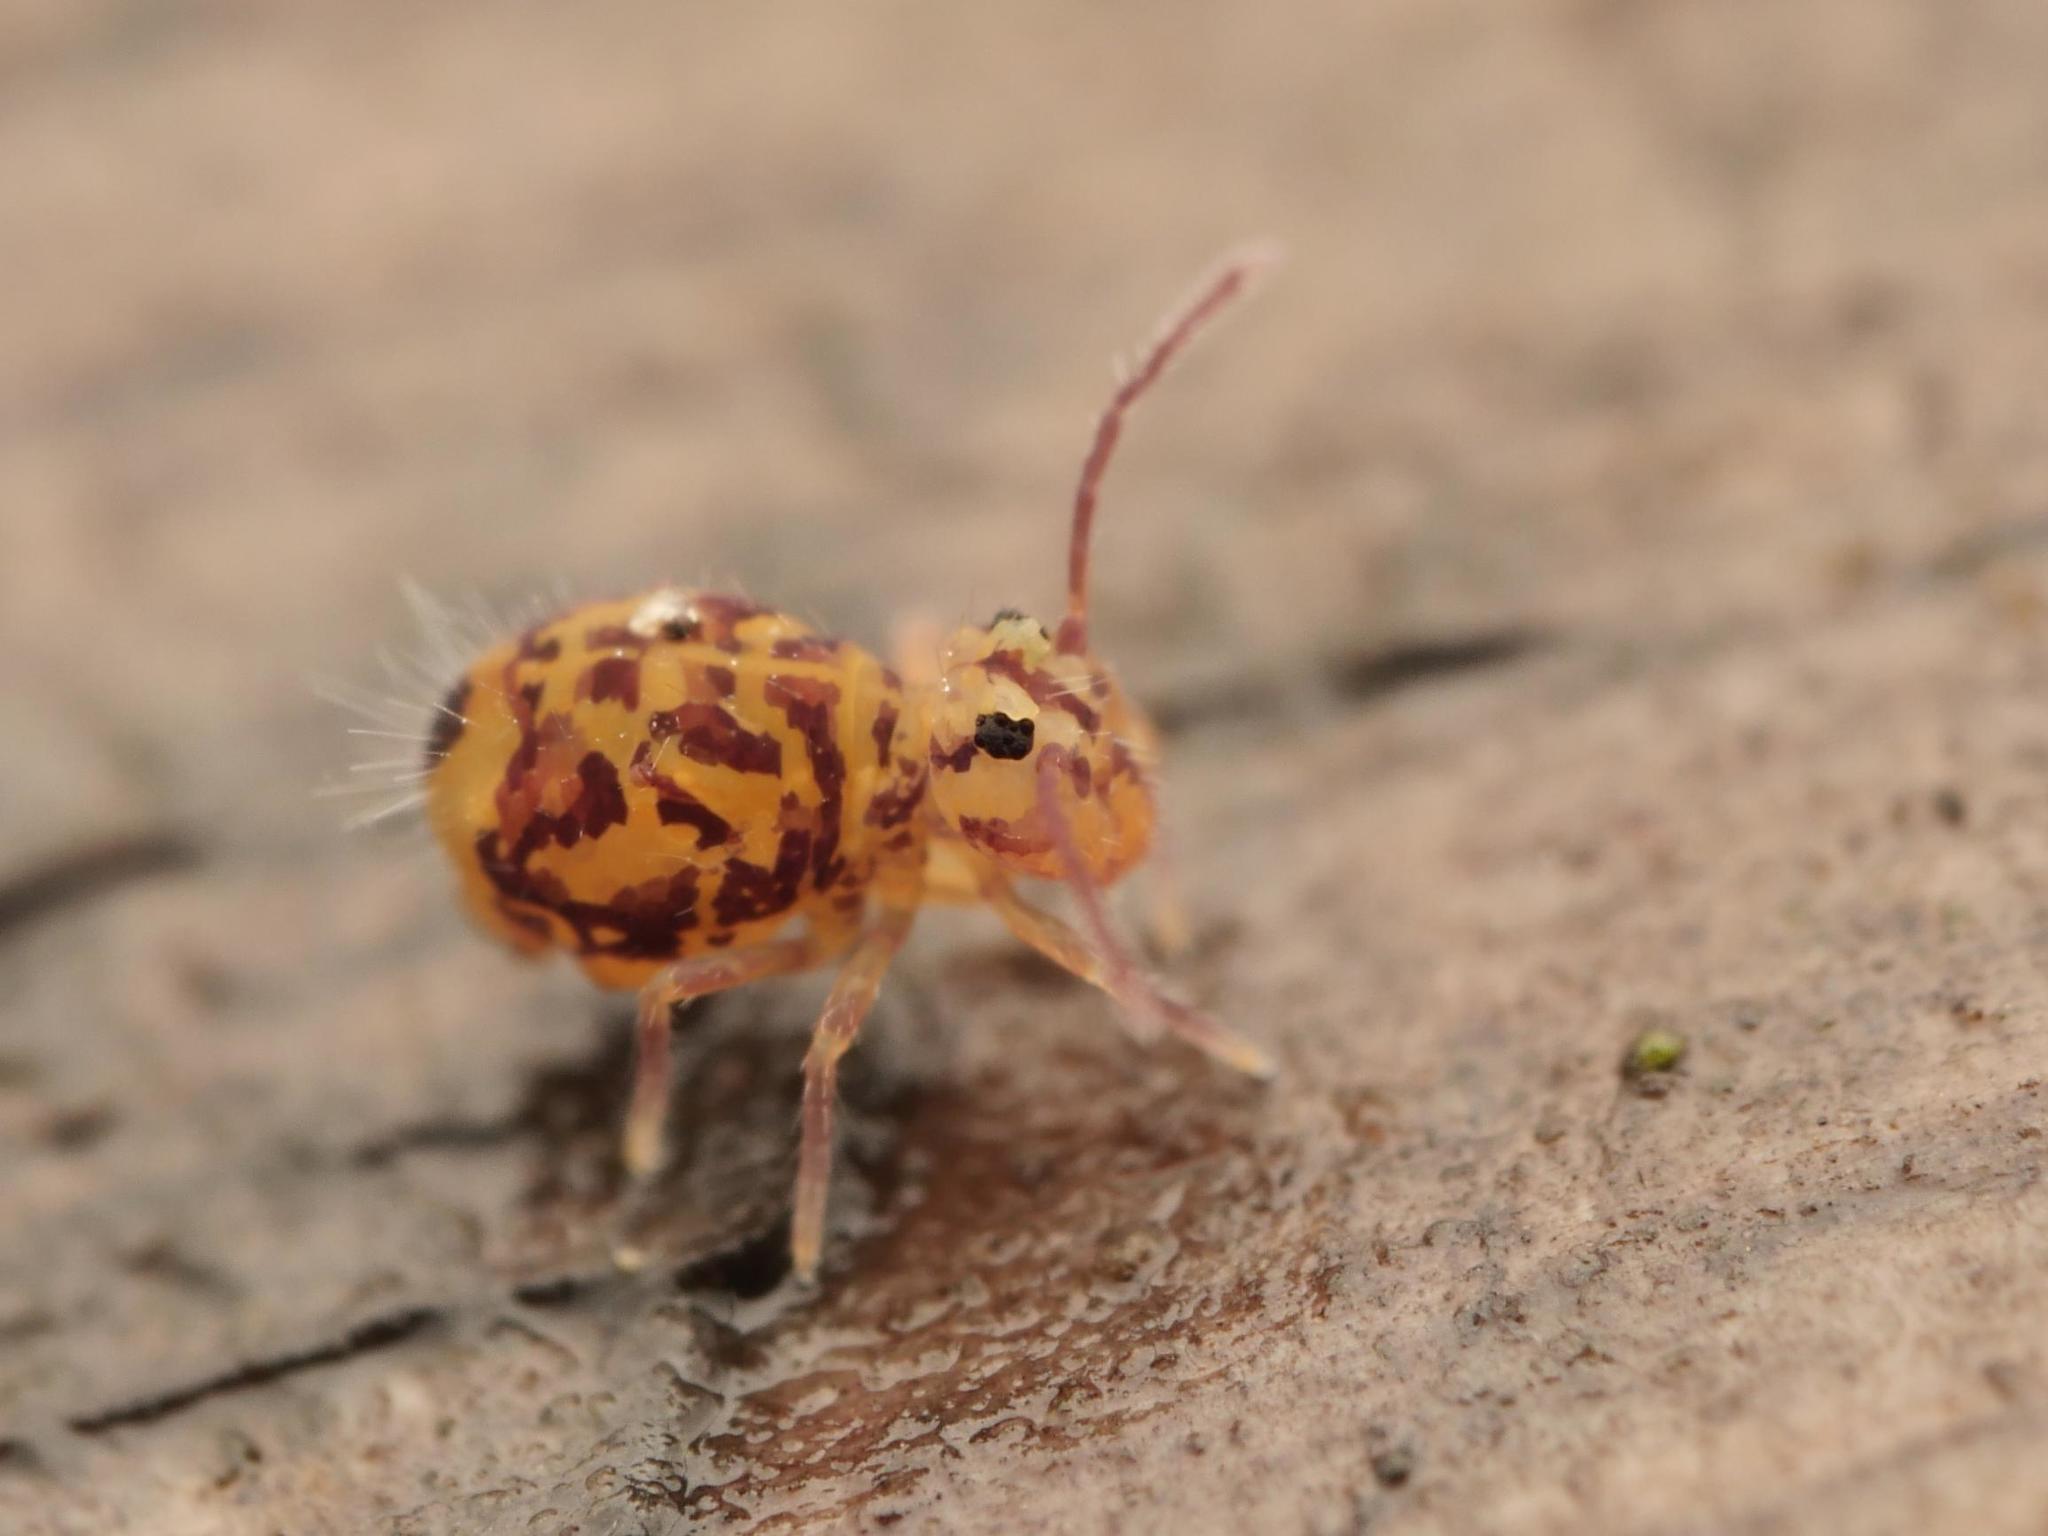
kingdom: Animalia
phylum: Arthropoda
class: Collembola
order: Symphypleona
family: Dicyrtomidae
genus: Dicyrtomina
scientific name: Dicyrtomina ornata
